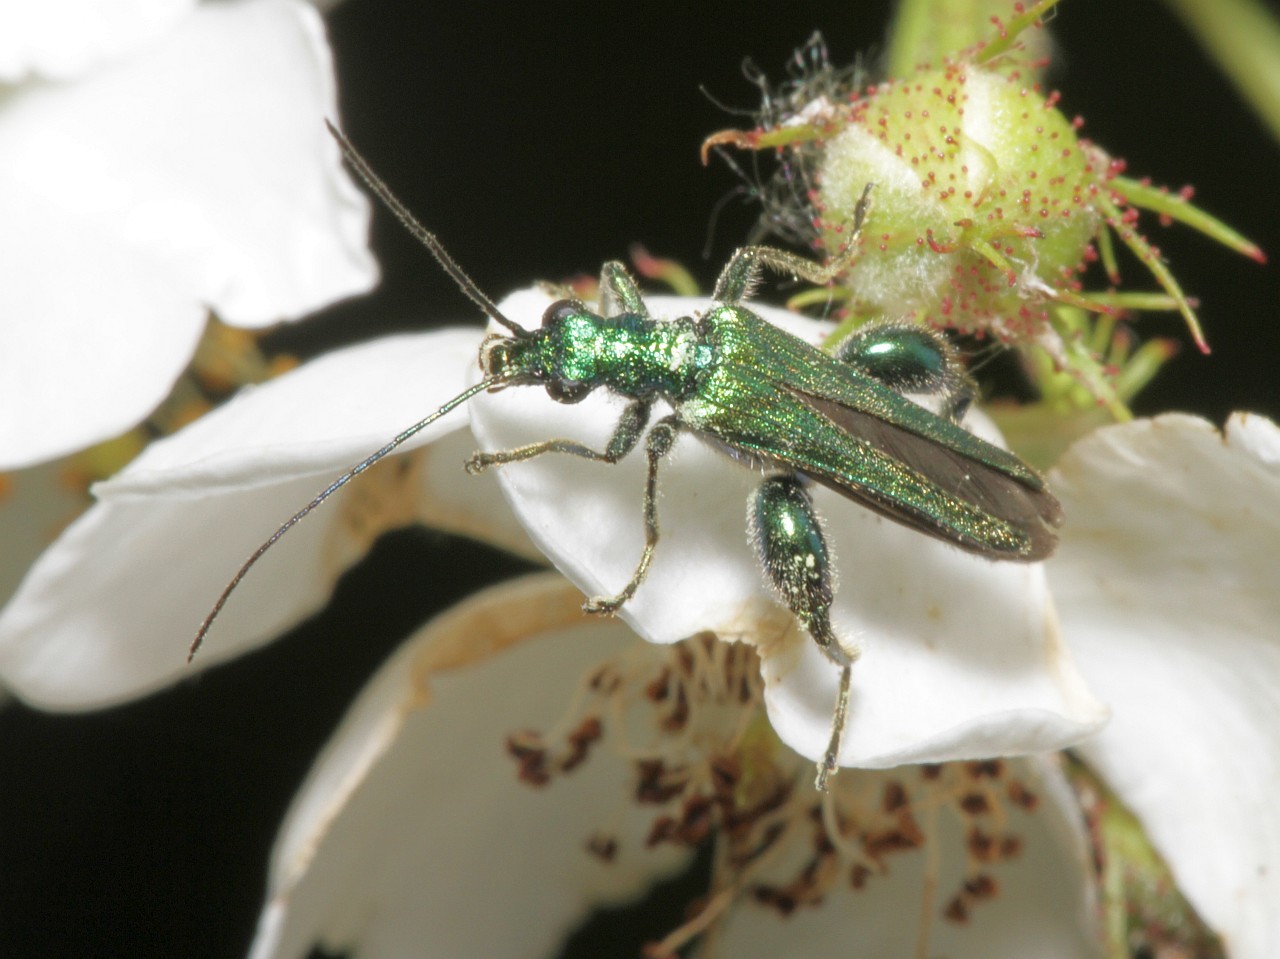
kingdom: Animalia
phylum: Arthropoda
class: Insecta
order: Coleoptera
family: Oedemeridae
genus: Oedemera
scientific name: Oedemera nobilis
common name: Swollen-thighed beetle
